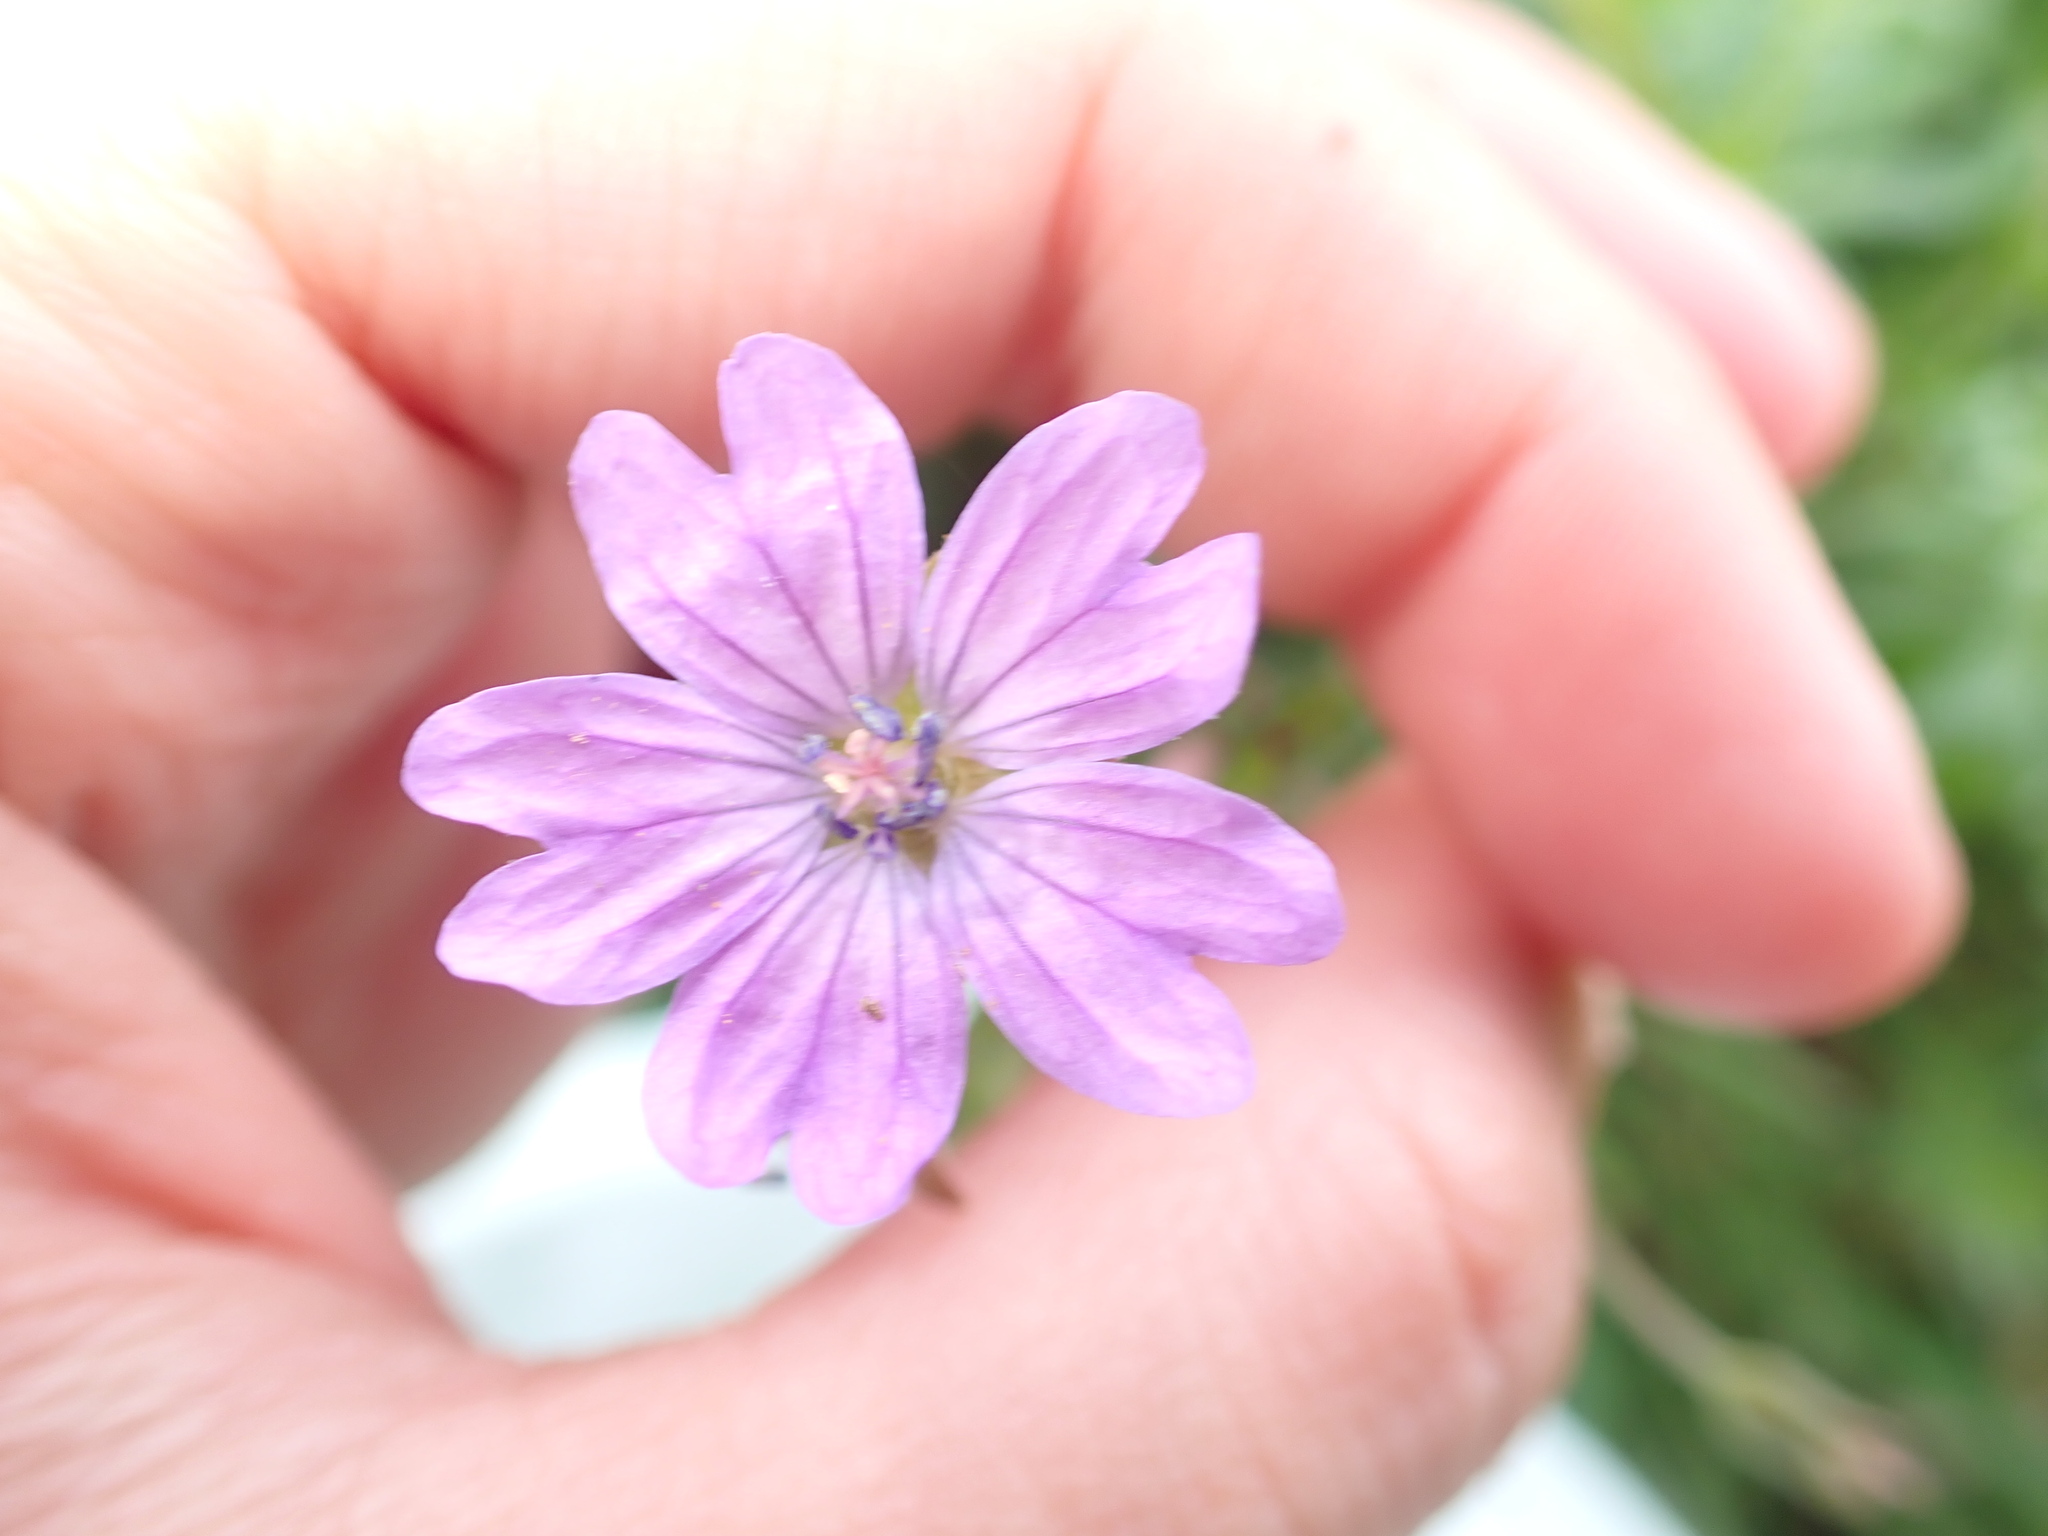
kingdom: Plantae
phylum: Tracheophyta
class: Magnoliopsida
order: Geraniales
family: Geraniaceae
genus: Geranium
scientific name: Geranium pyrenaicum
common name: Hedgerow crane's-bill
